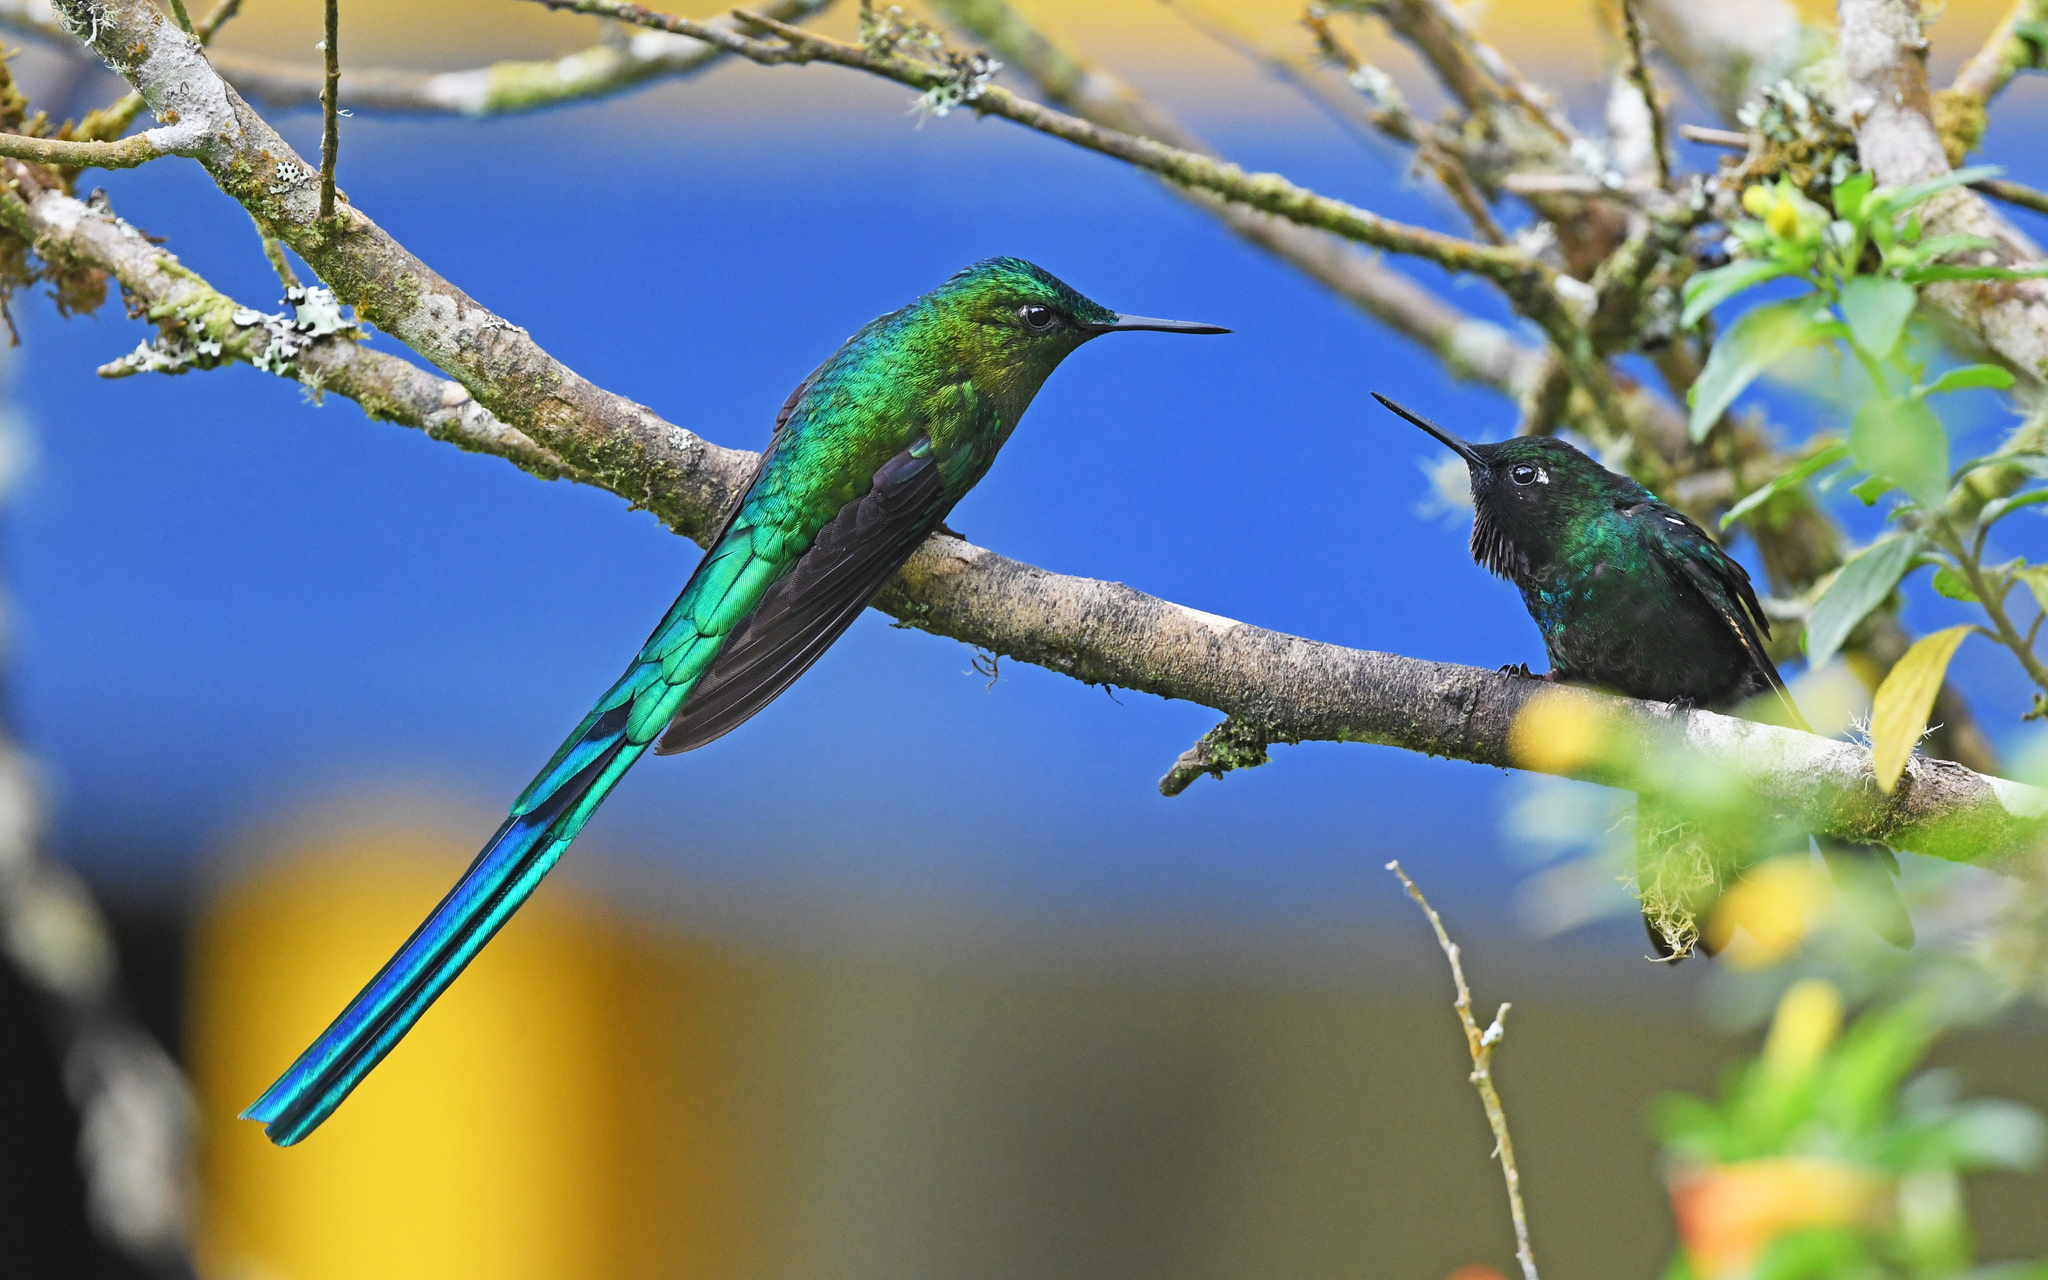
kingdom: Animalia
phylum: Chordata
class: Aves
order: Apodiformes
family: Trochilidae
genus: Aglaiocercus
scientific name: Aglaiocercus kingii
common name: Long-tailed sylph
